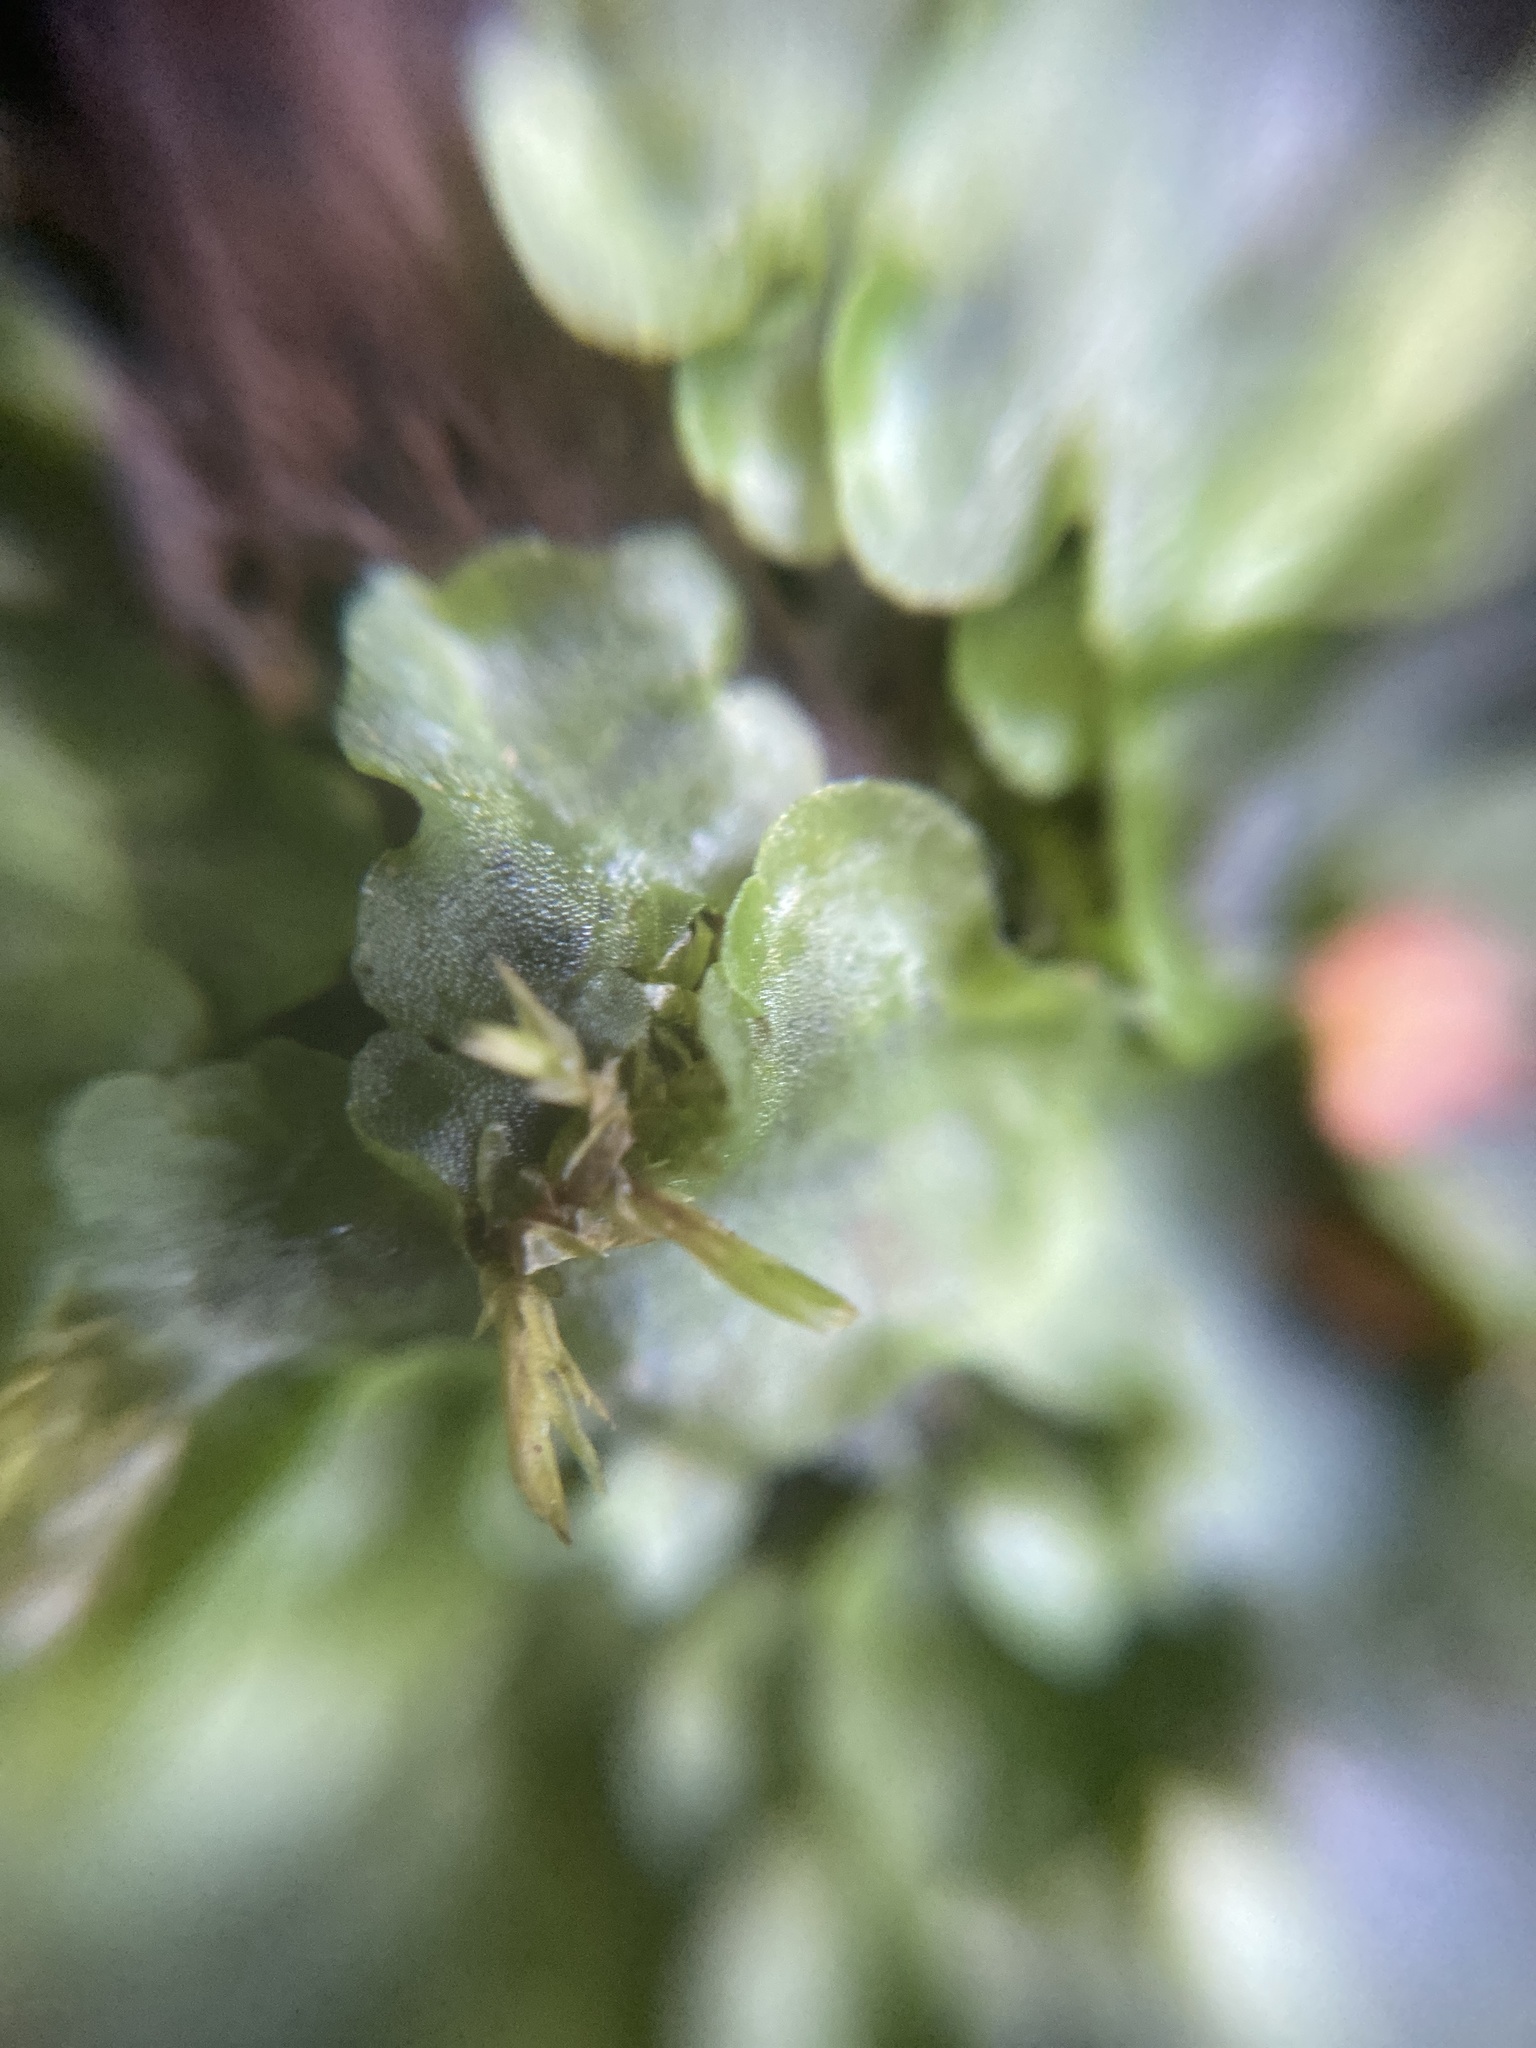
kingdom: Plantae
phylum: Marchantiophyta
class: Jungermanniopsida
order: Pelliales
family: Pelliaceae
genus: Pellia
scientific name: Pellia epiphylla
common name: Common pellia
